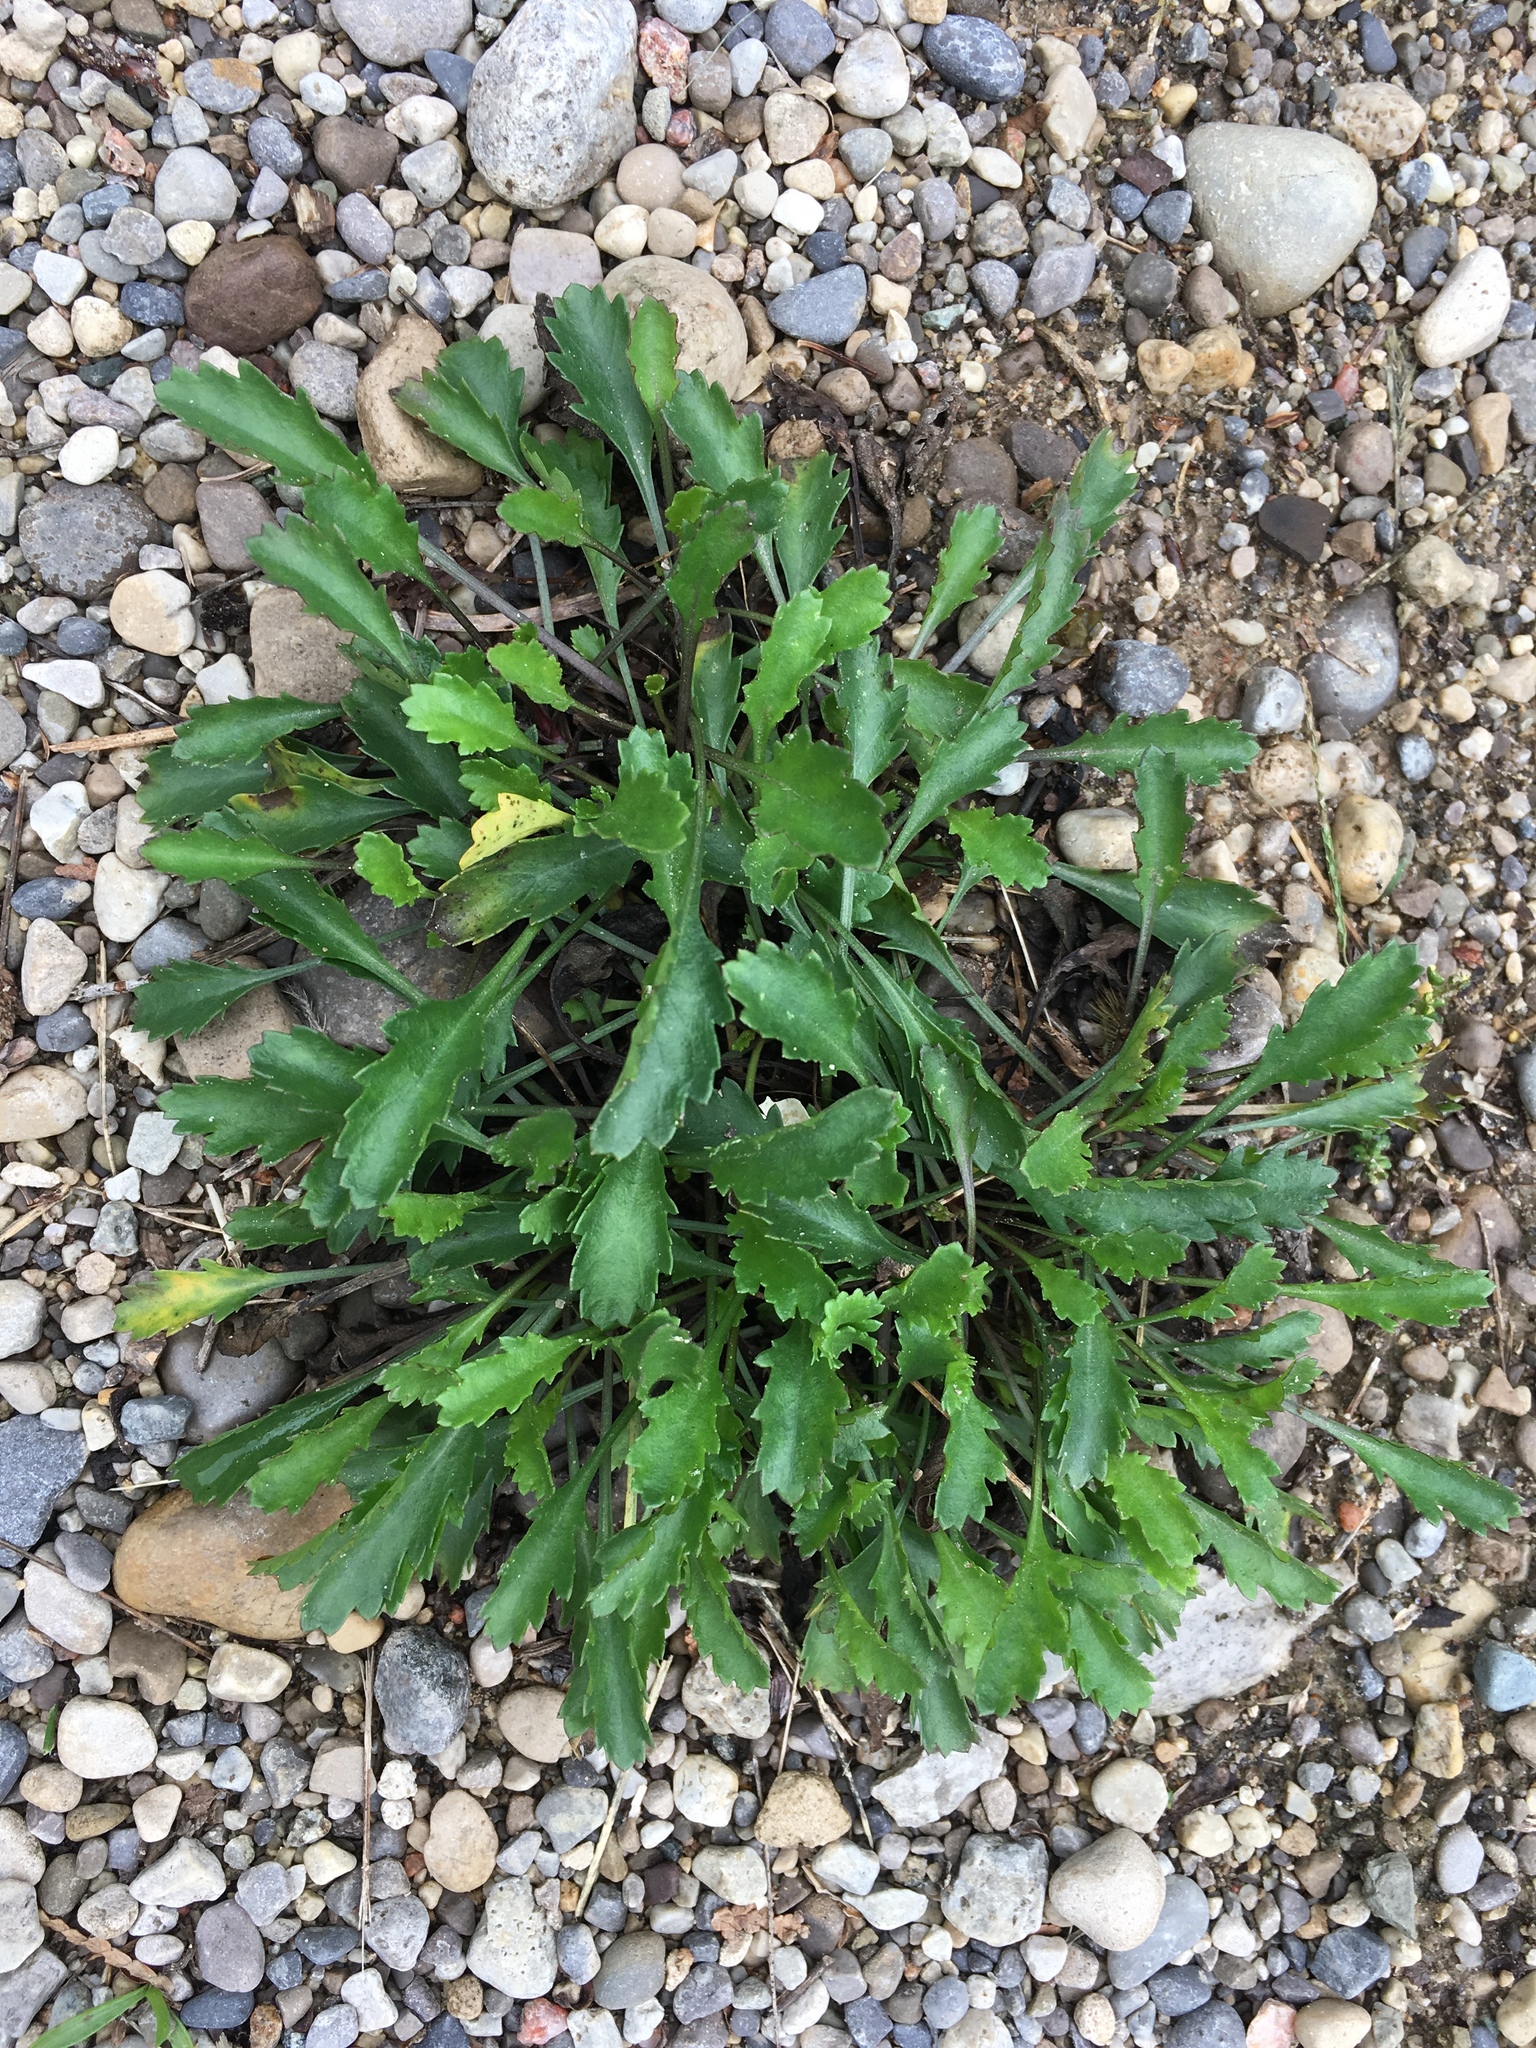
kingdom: Plantae
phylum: Tracheophyta
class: Magnoliopsida
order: Asterales
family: Asteraceae
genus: Leucanthemum
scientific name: Leucanthemum vulgare
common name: Oxeye daisy
